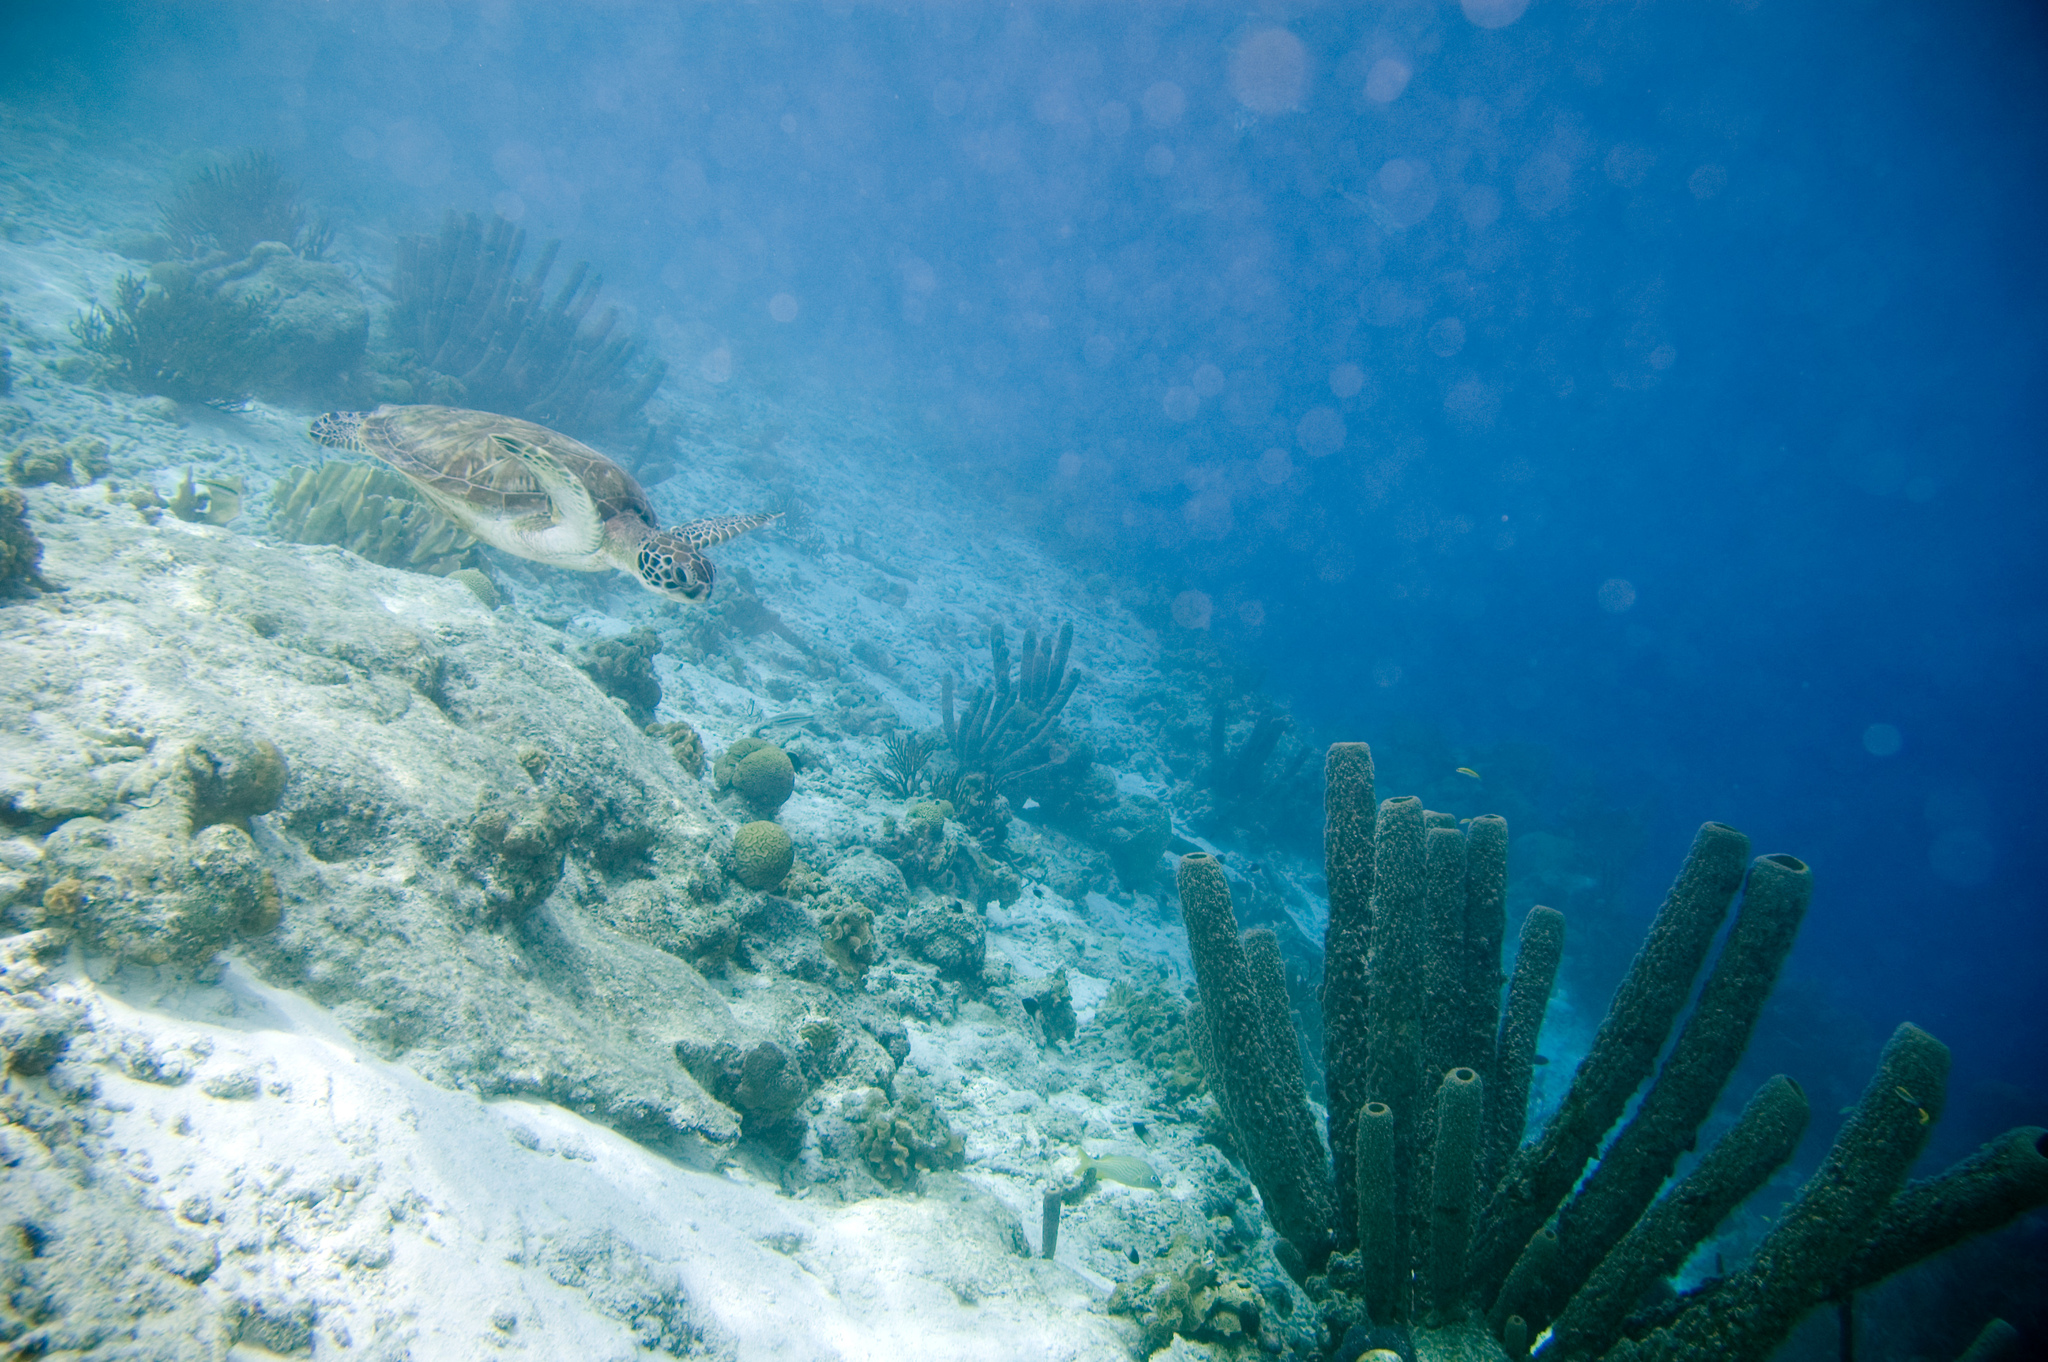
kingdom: Animalia
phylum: Chordata
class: Testudines
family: Cheloniidae
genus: Chelonia
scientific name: Chelonia mydas
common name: Green turtle
